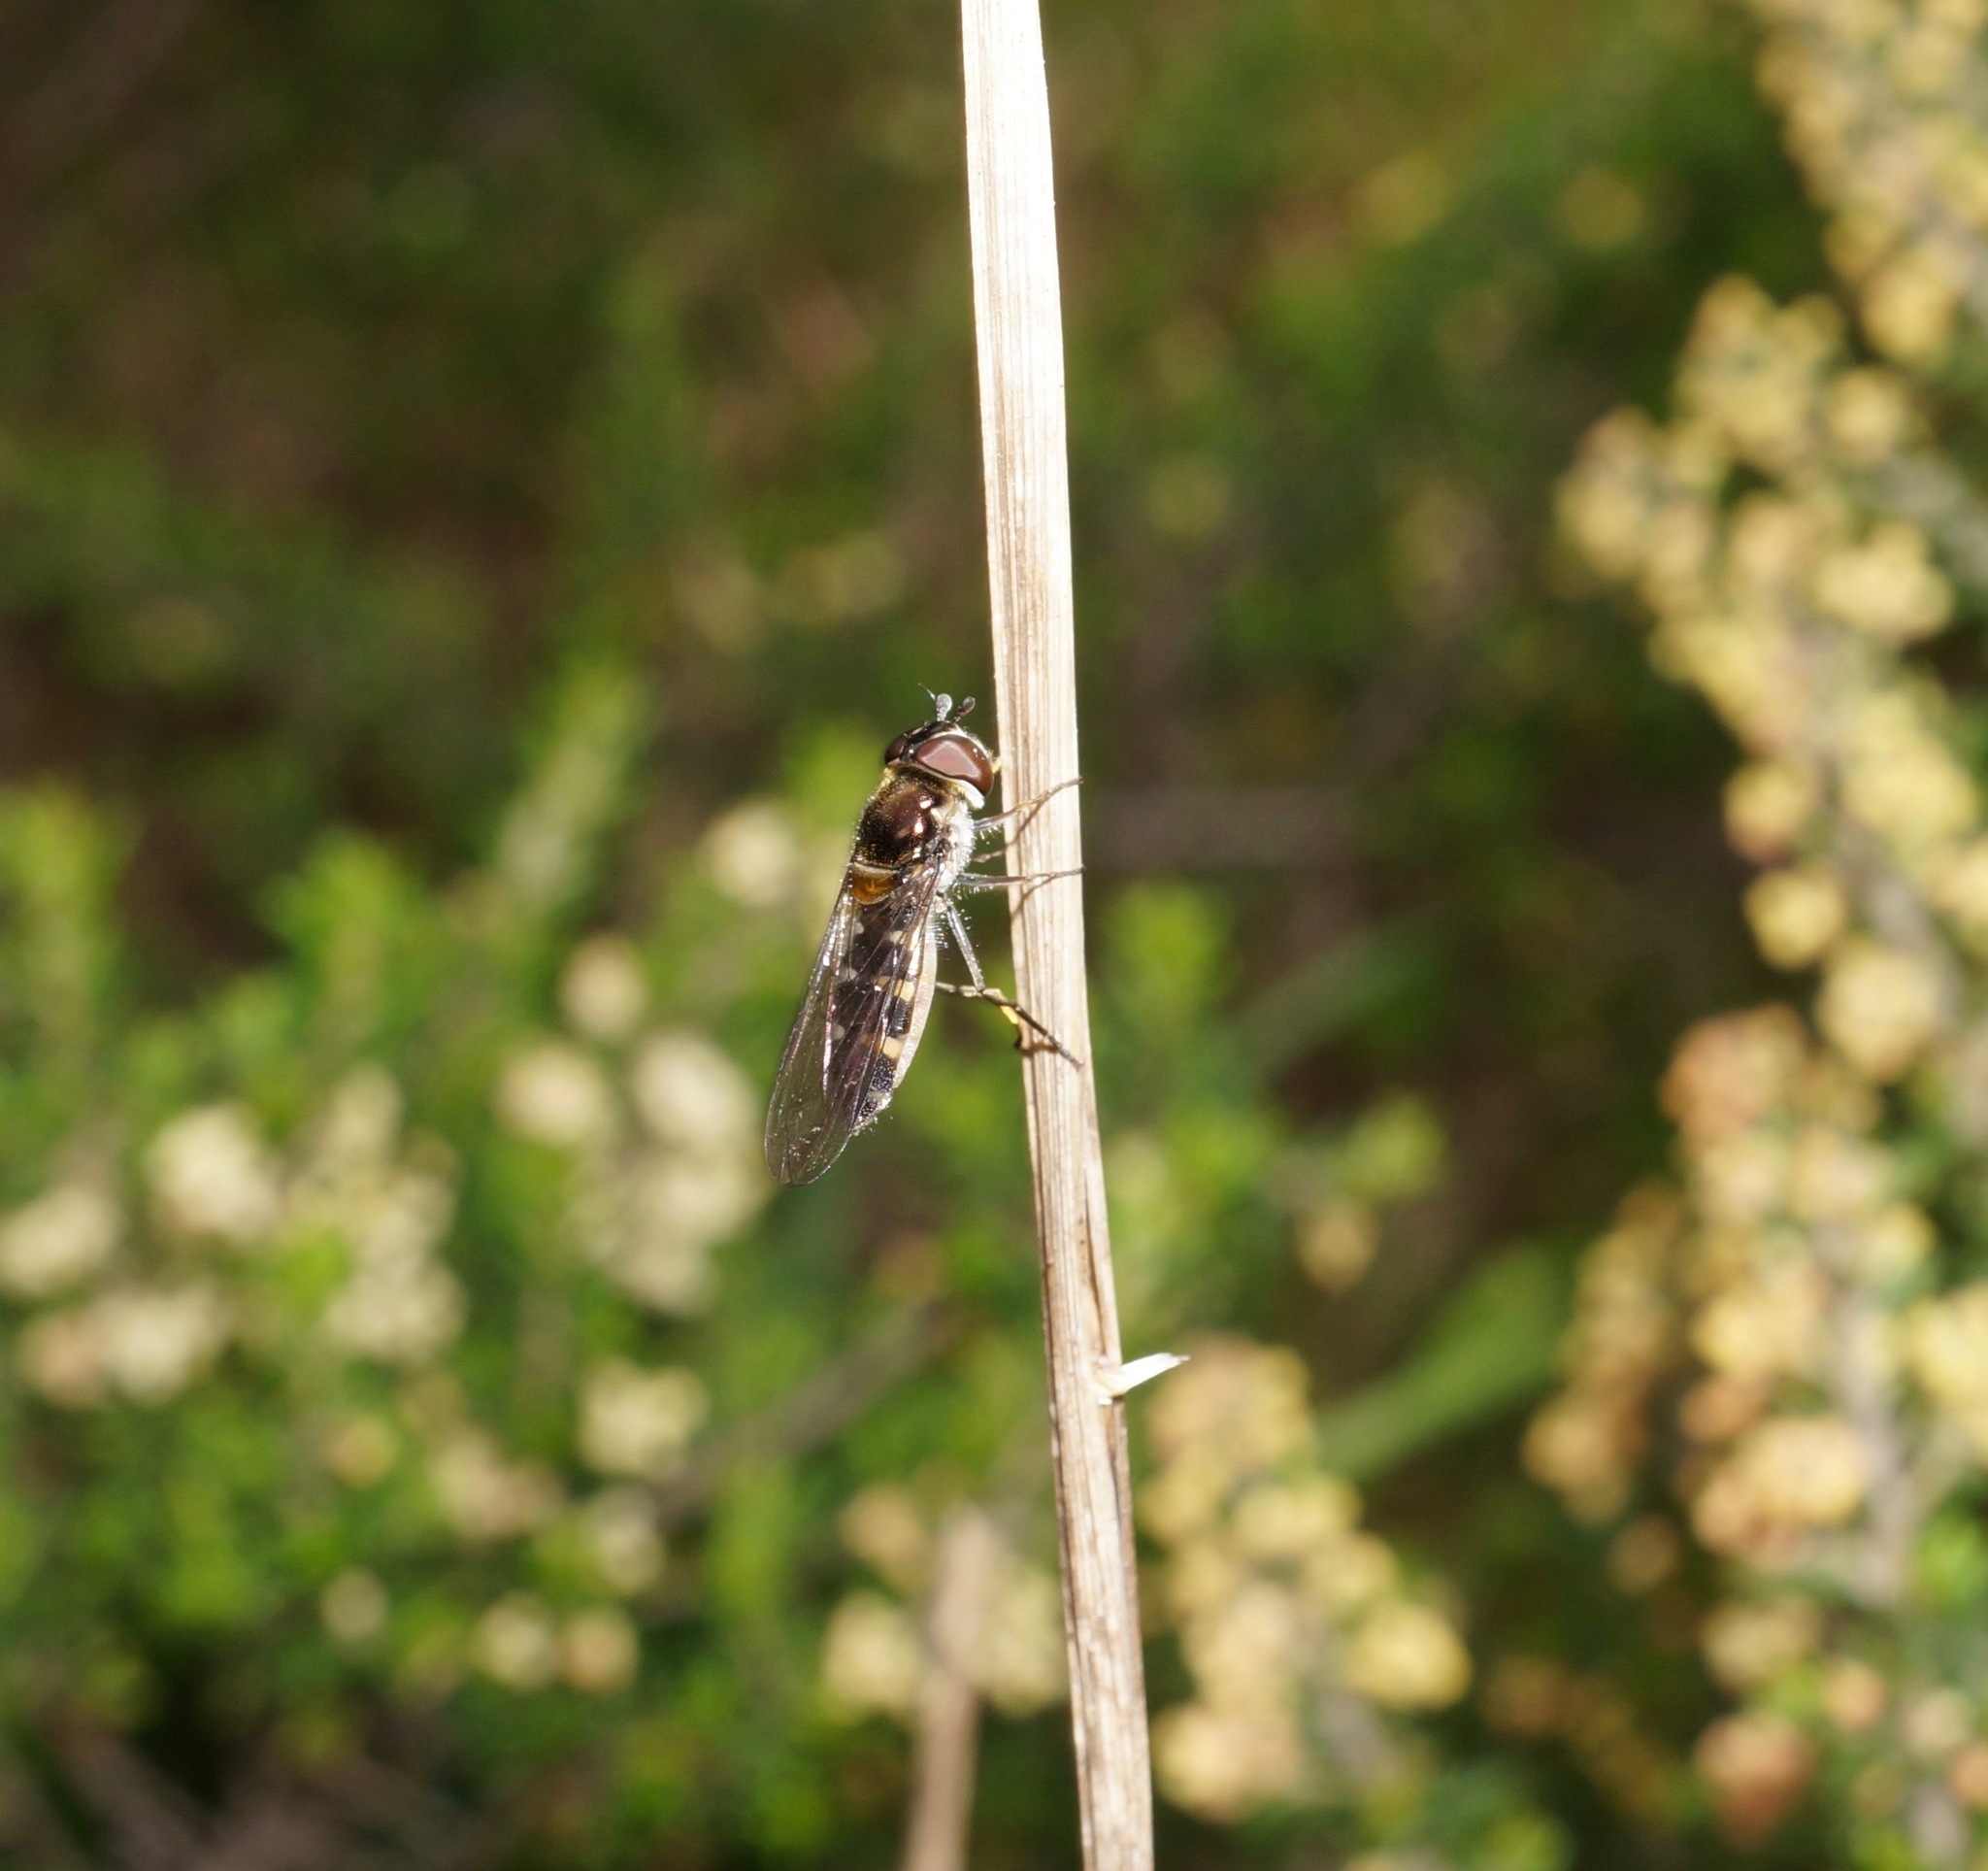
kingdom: Animalia
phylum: Arthropoda
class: Insecta
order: Diptera
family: Syrphidae
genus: Melangyna
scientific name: Melangyna novaezelandiae
